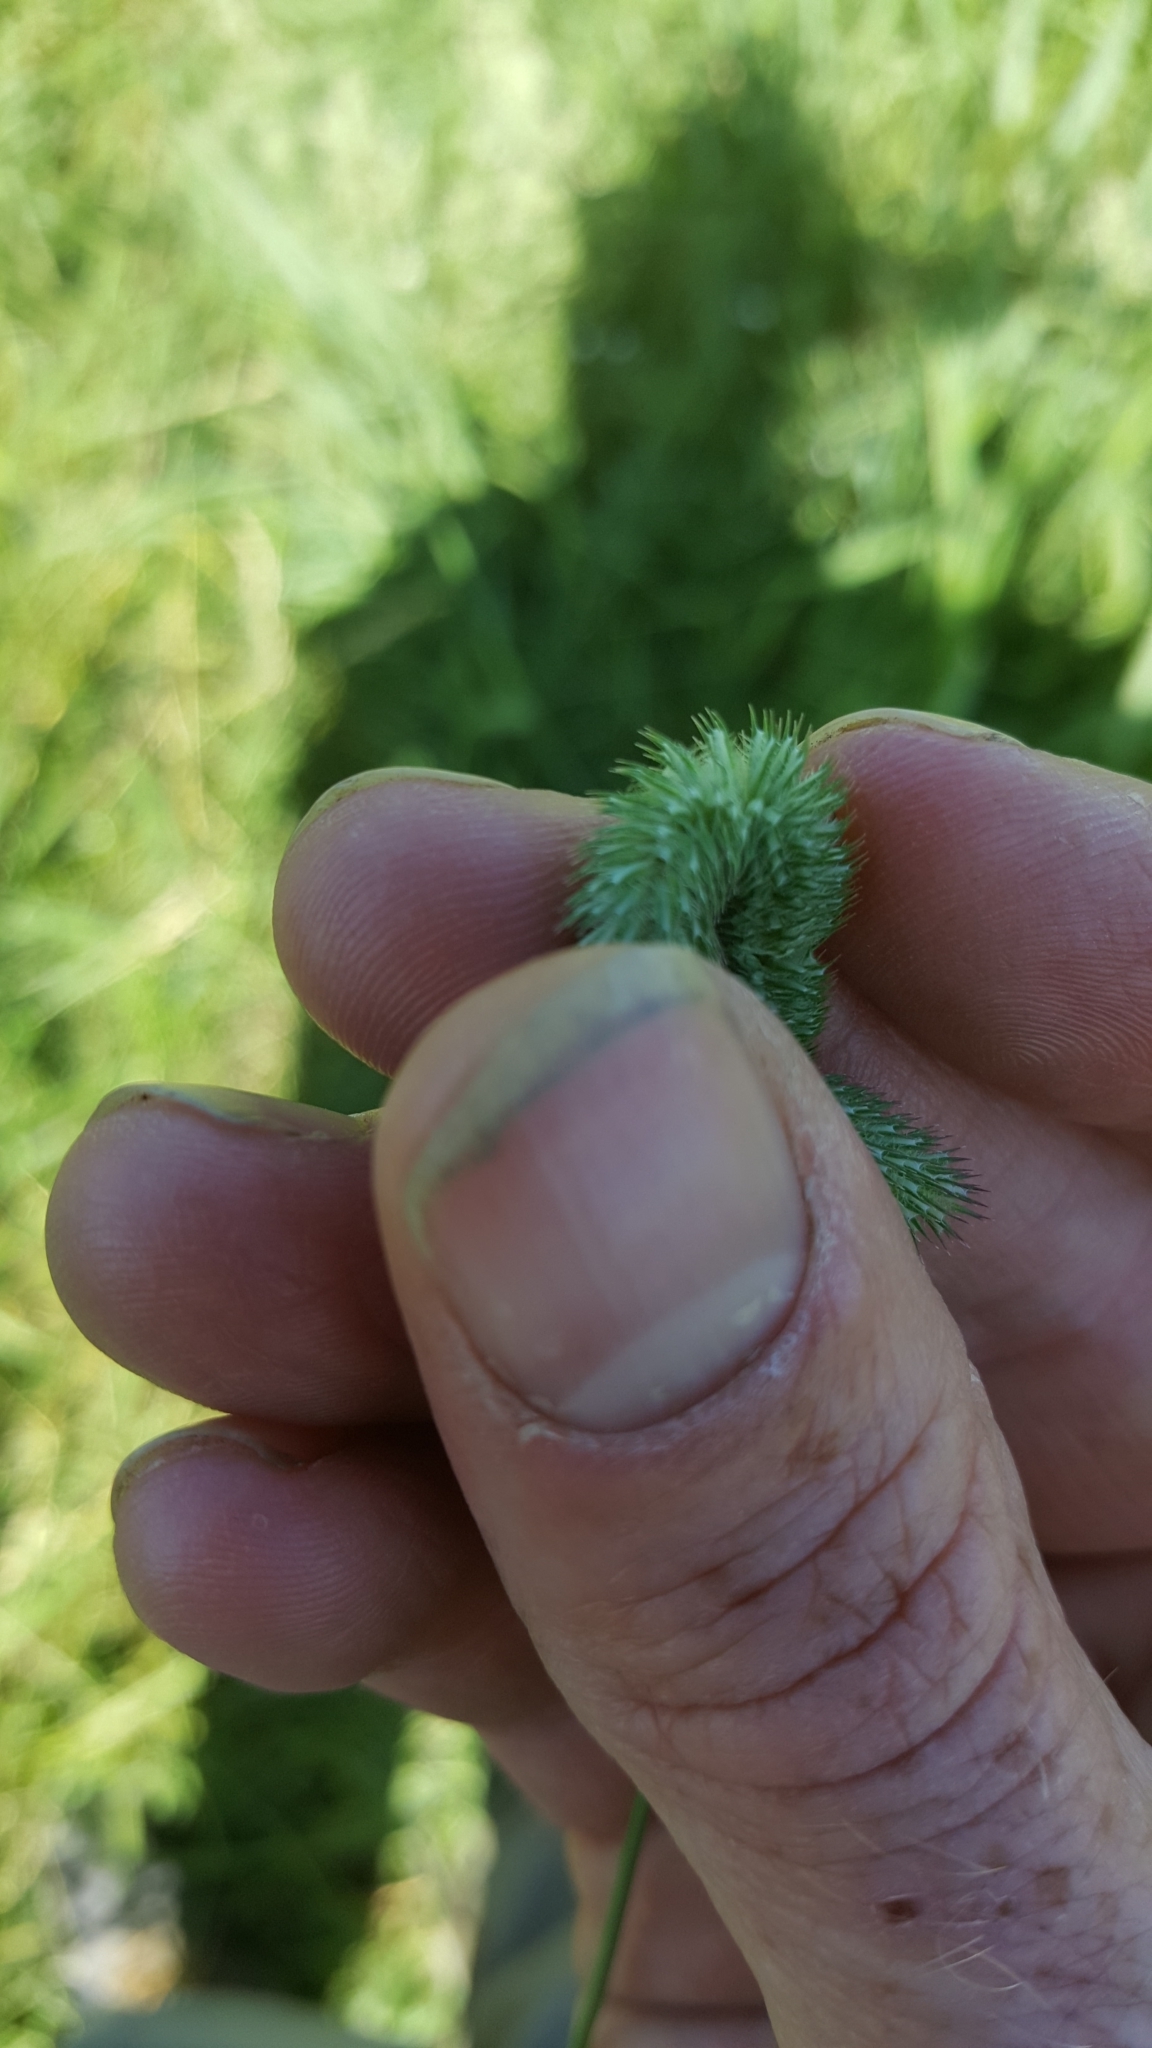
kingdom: Plantae
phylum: Tracheophyta
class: Liliopsida
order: Poales
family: Poaceae
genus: Phleum
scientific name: Phleum pratense
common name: Timothy grass
